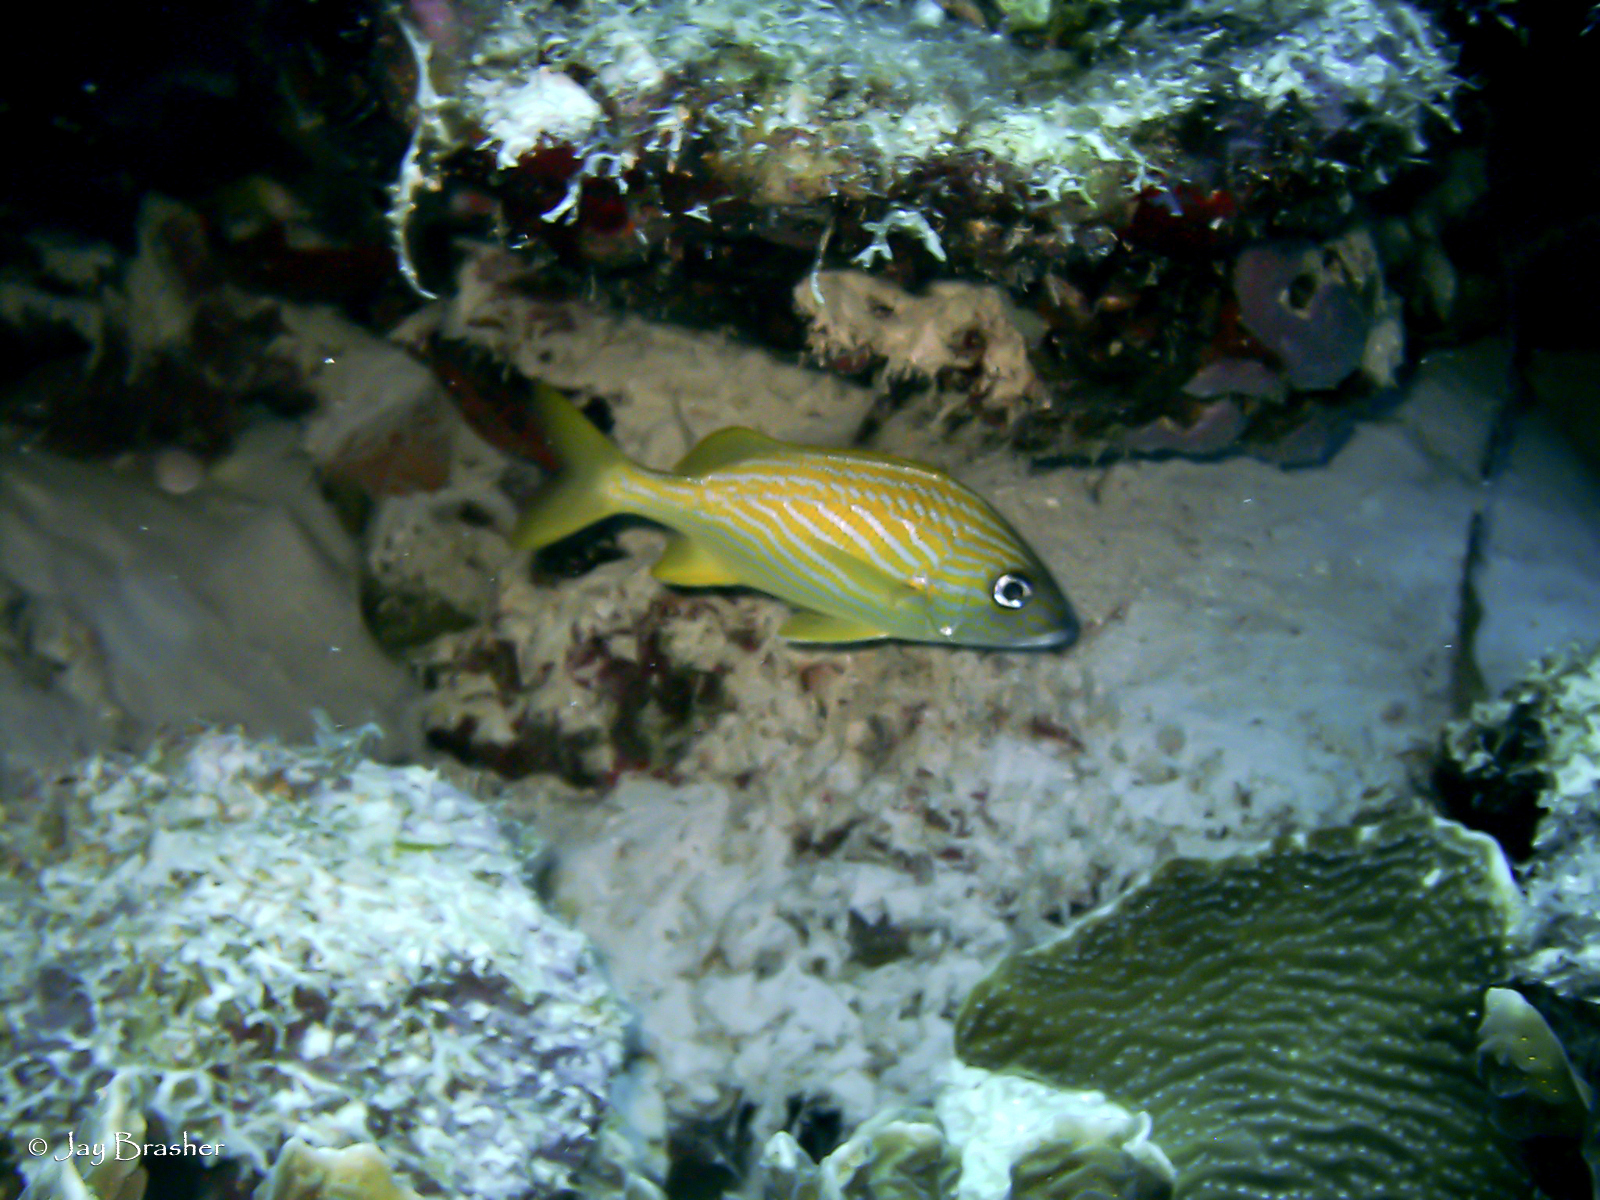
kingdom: Animalia
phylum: Chordata
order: Perciformes
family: Haemulidae
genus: Haemulon
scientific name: Haemulon flavolineatum
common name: French grunt
